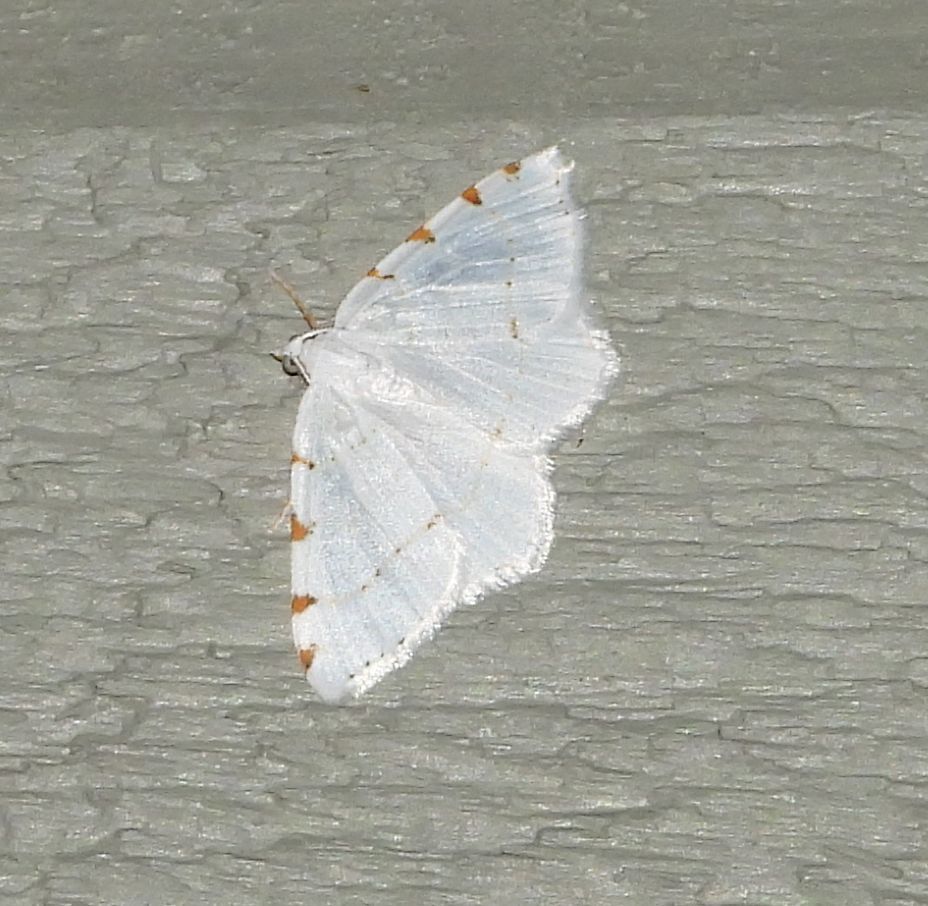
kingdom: Animalia
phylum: Arthropoda
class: Insecta
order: Lepidoptera
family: Geometridae
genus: Macaria
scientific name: Macaria pustularia
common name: Lesser maple spanworm moth
